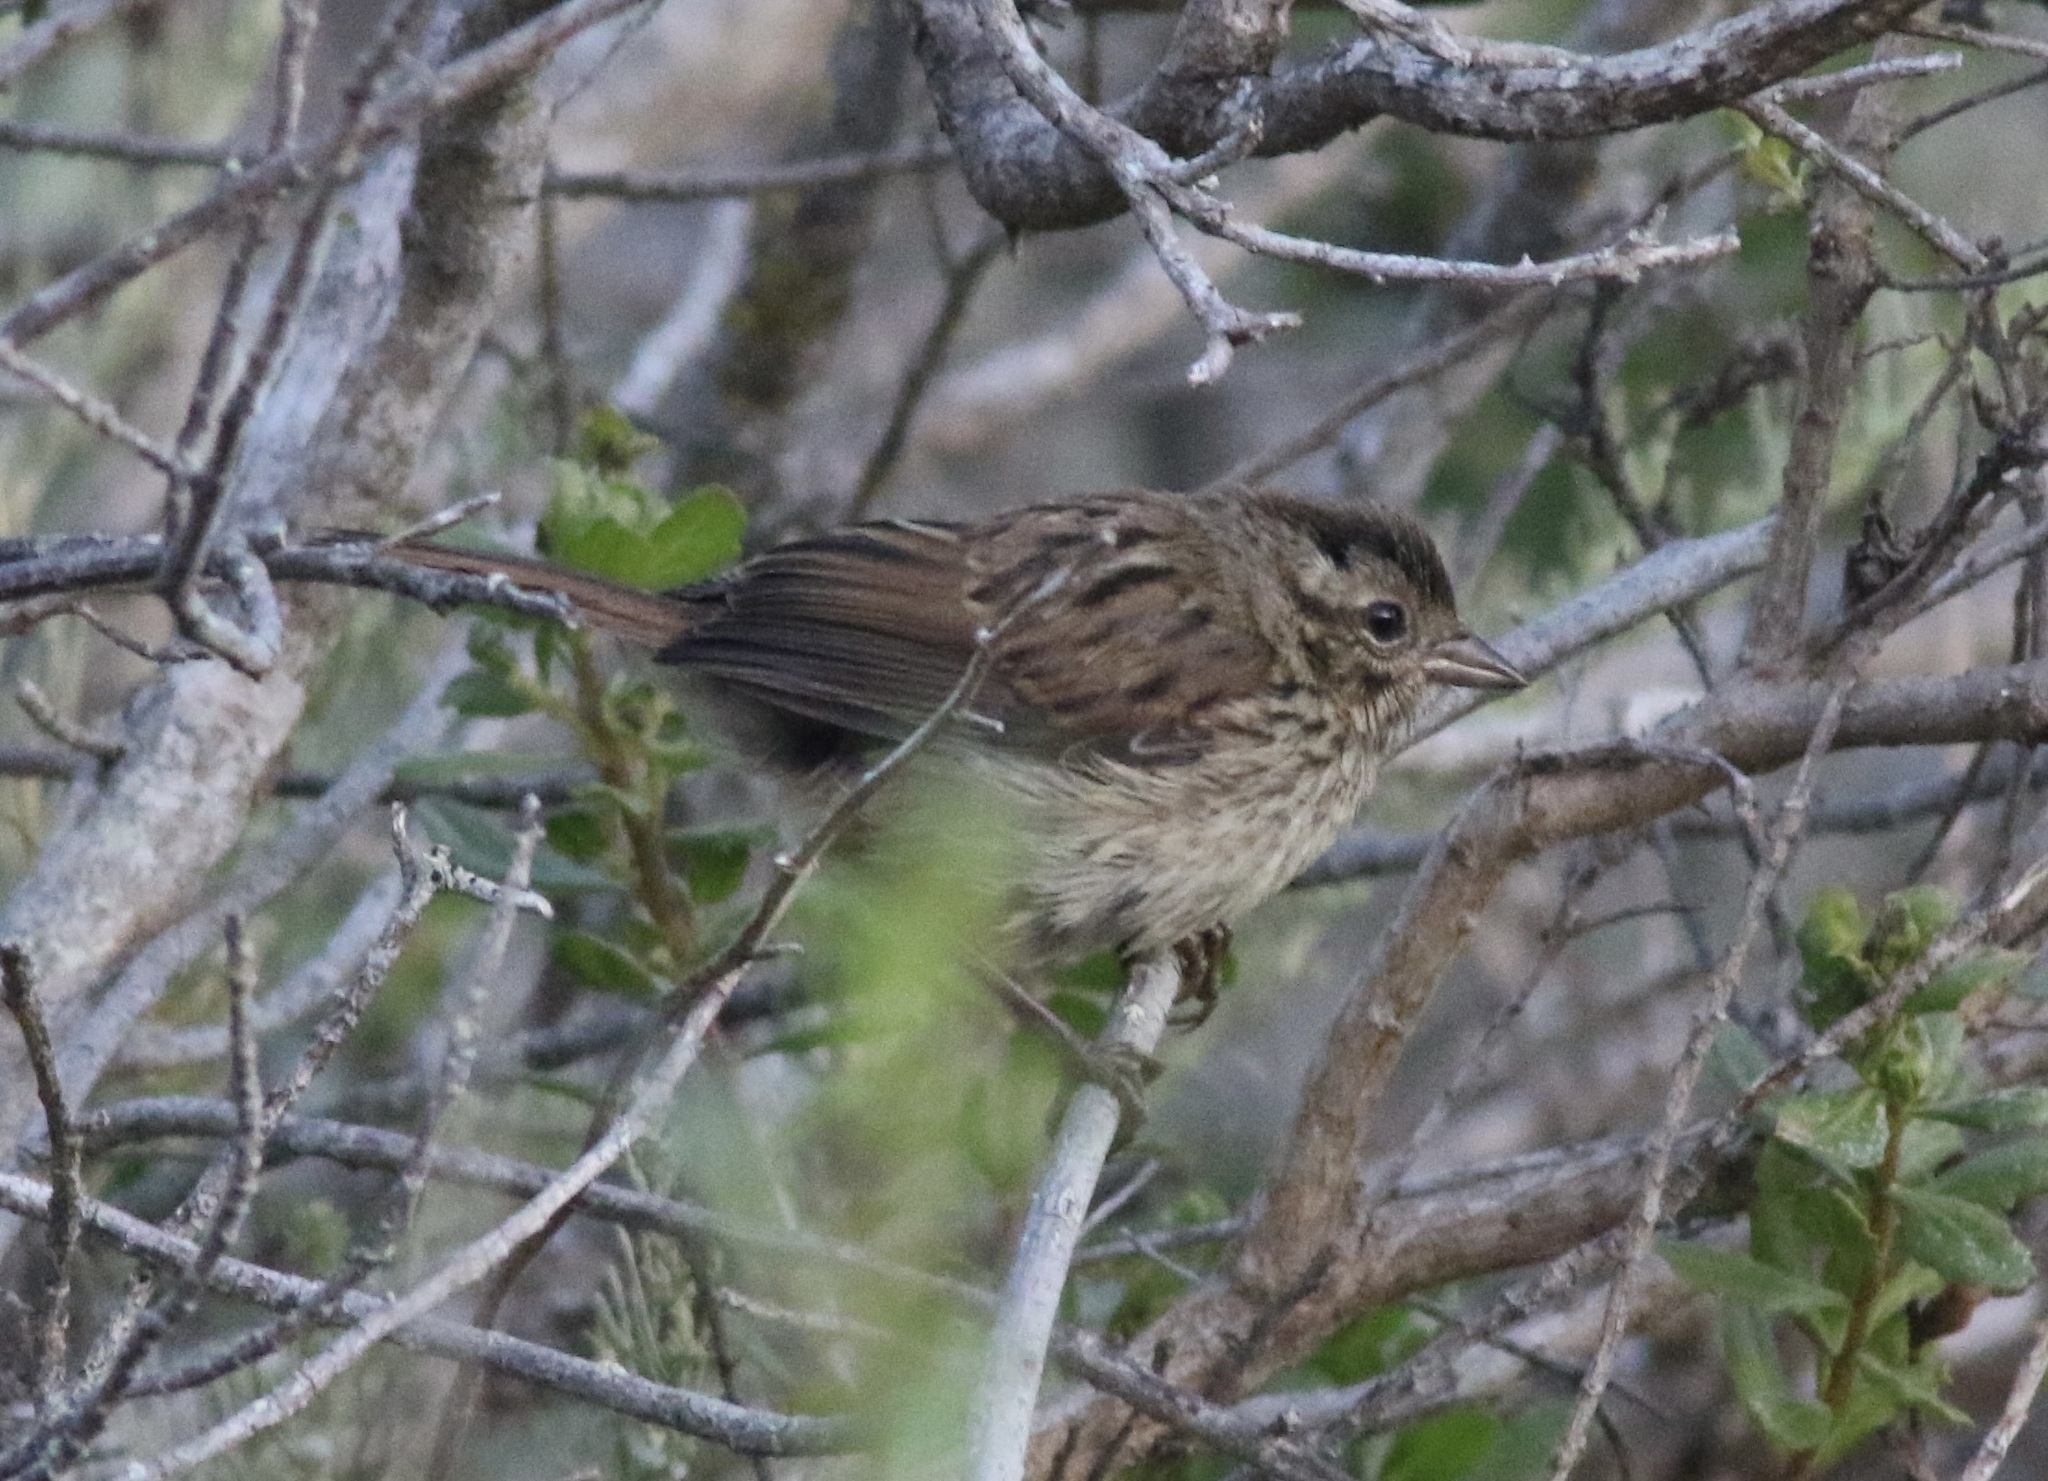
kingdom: Animalia
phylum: Chordata
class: Aves
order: Passeriformes
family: Passerellidae
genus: Melospiza
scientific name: Melospiza melodia
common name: Song sparrow
